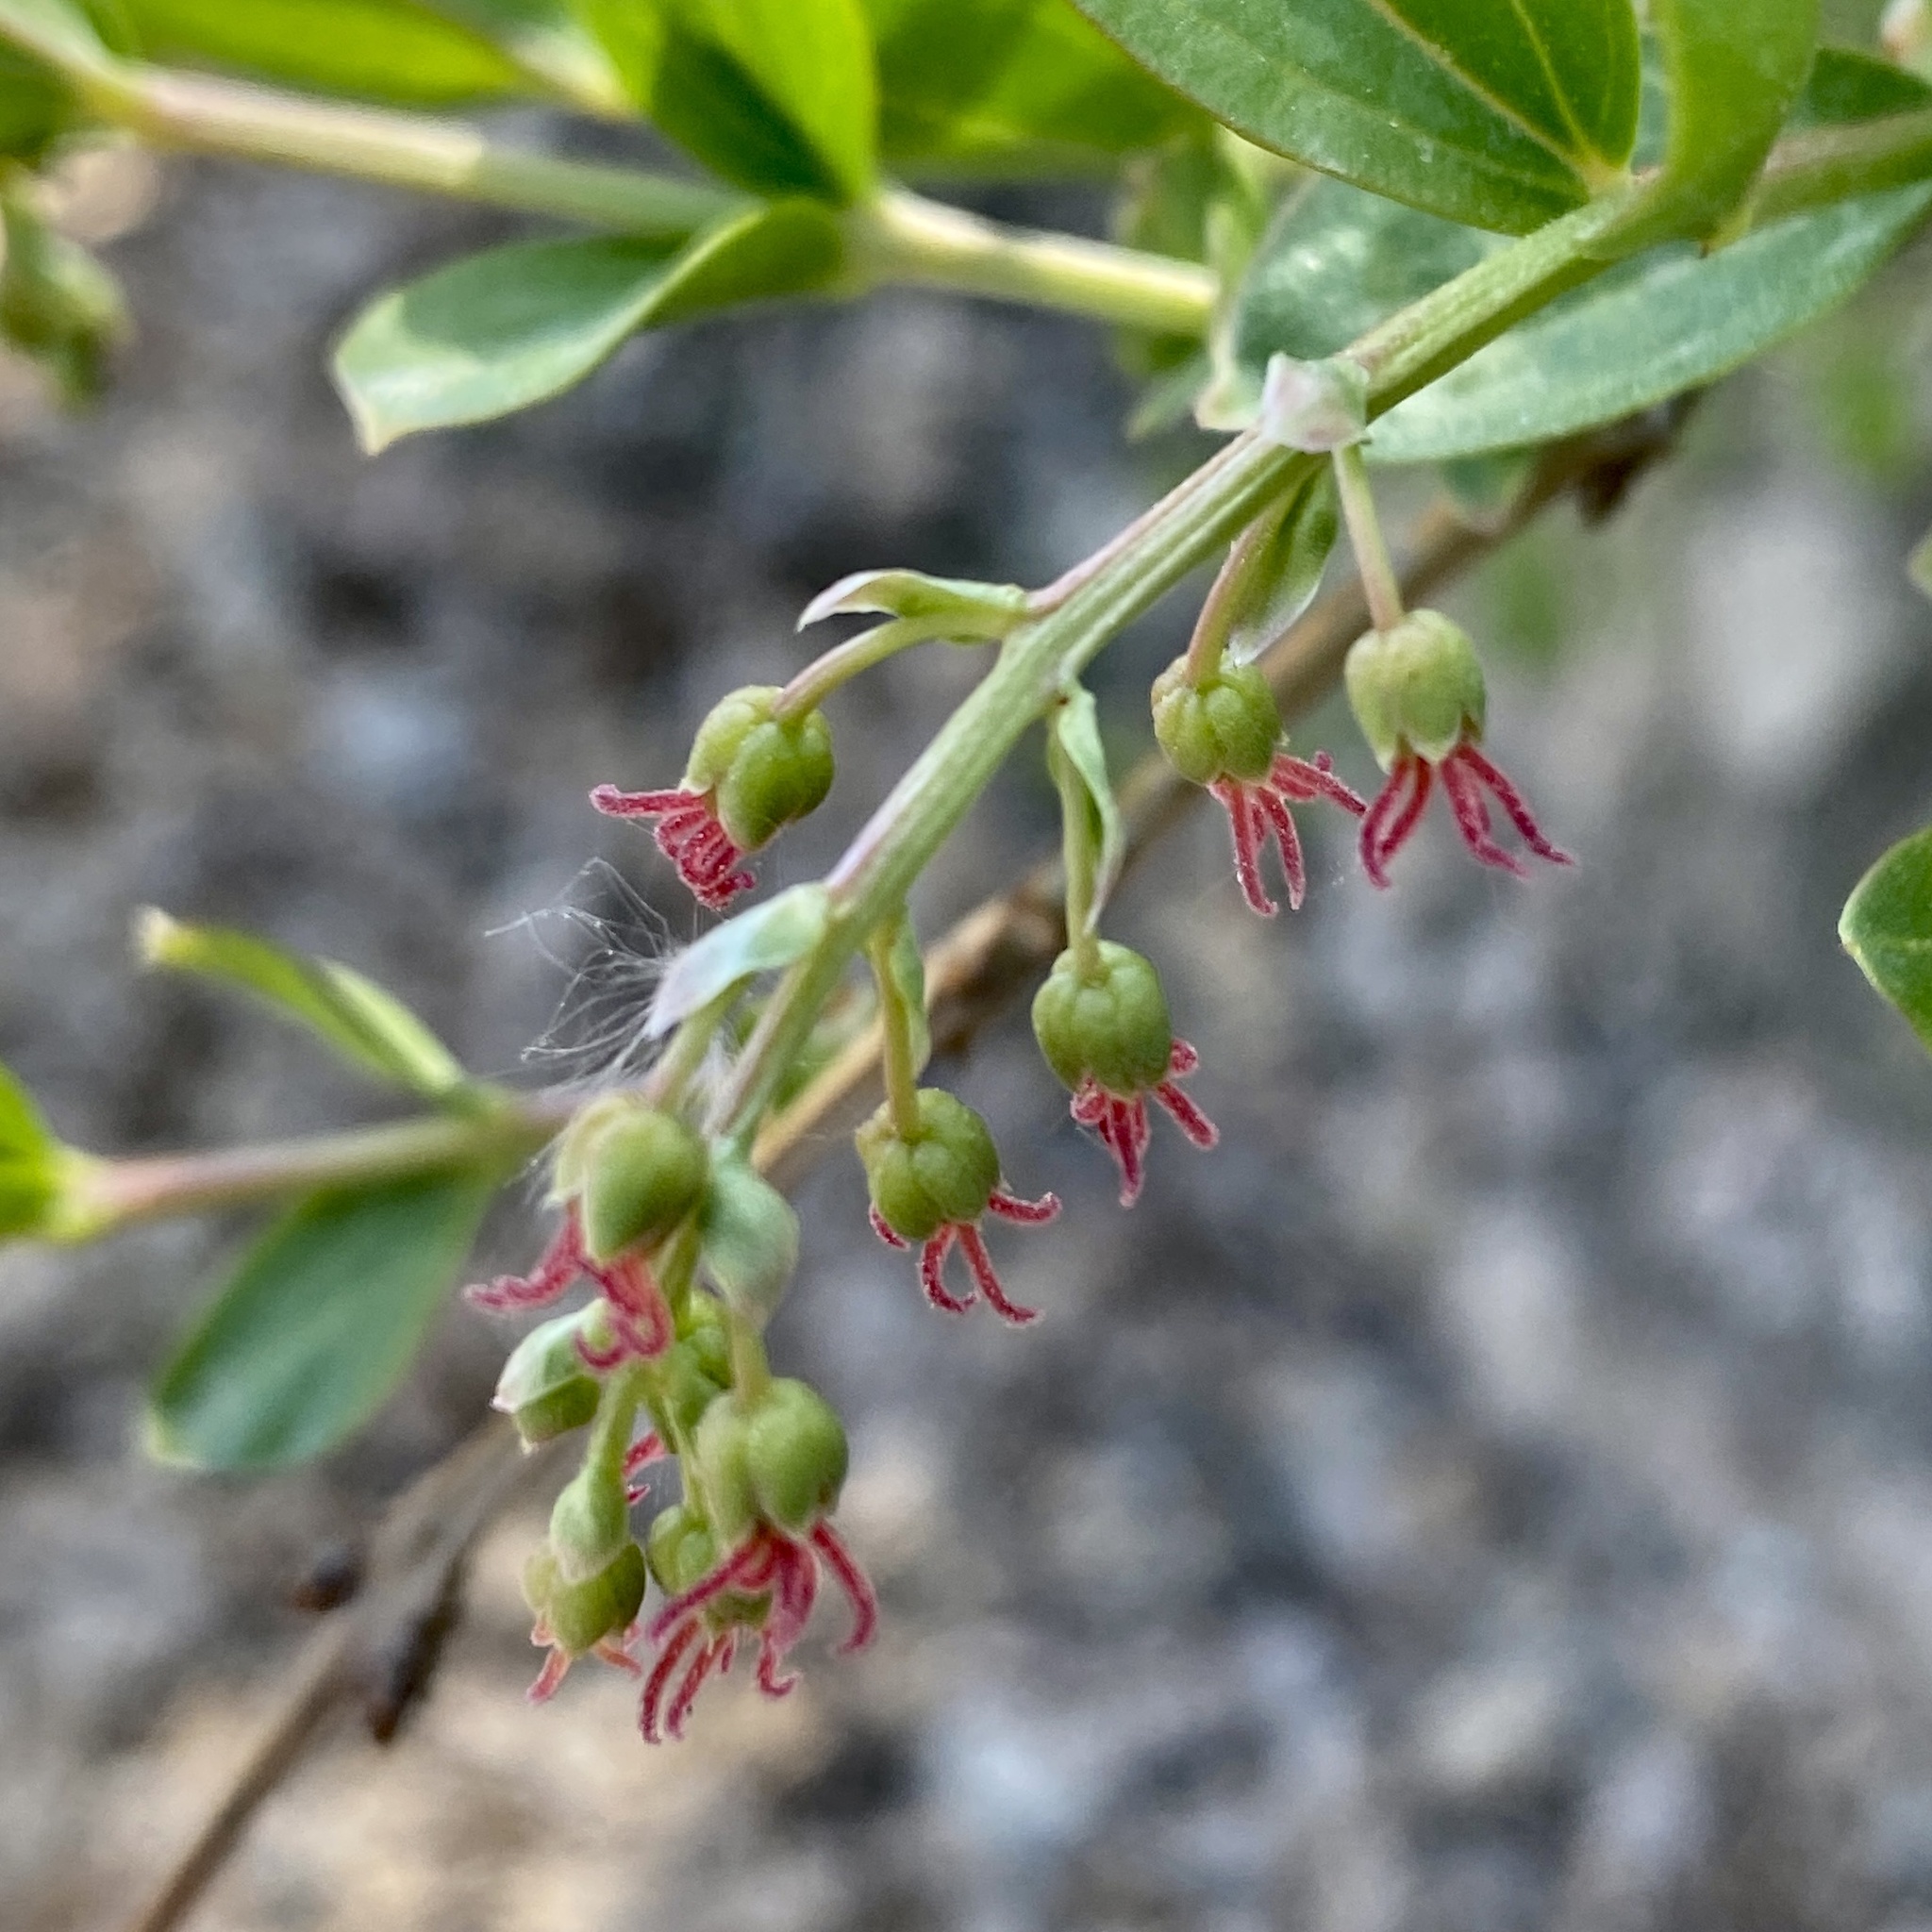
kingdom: Plantae
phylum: Tracheophyta
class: Magnoliopsida
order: Cucurbitales
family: Coriariaceae
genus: Coriaria
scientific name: Coriaria myrtifolia
